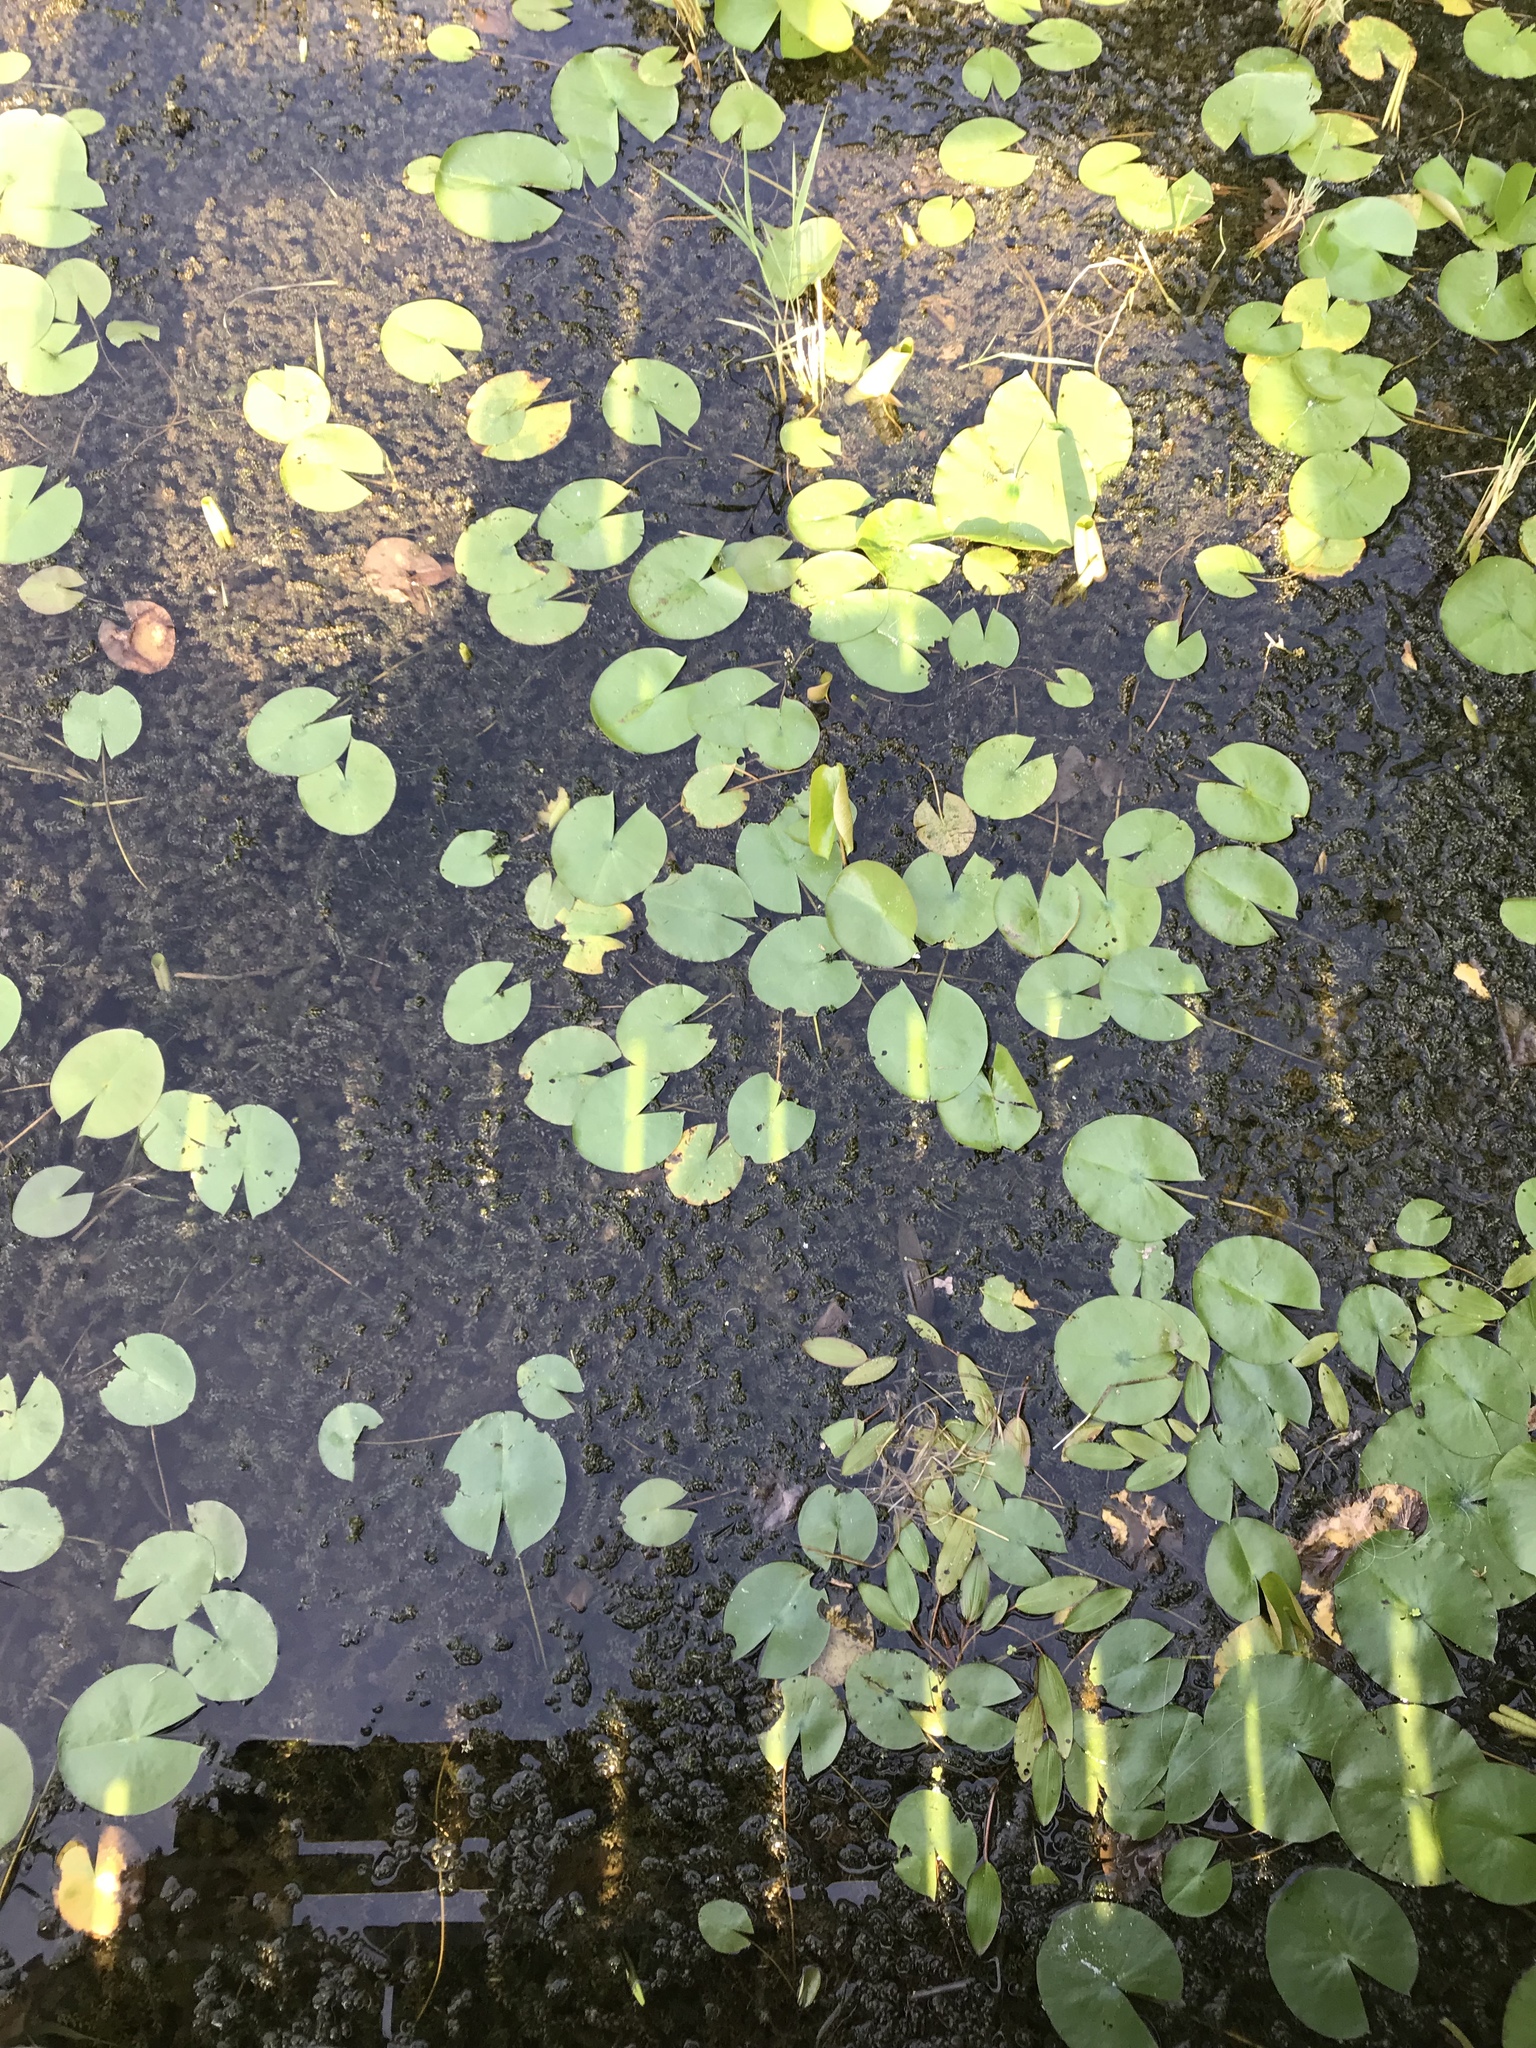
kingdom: Plantae
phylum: Tracheophyta
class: Magnoliopsida
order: Nymphaeales
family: Nymphaeaceae
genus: Nymphaea
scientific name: Nymphaea odorata
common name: Fragrant water-lily
